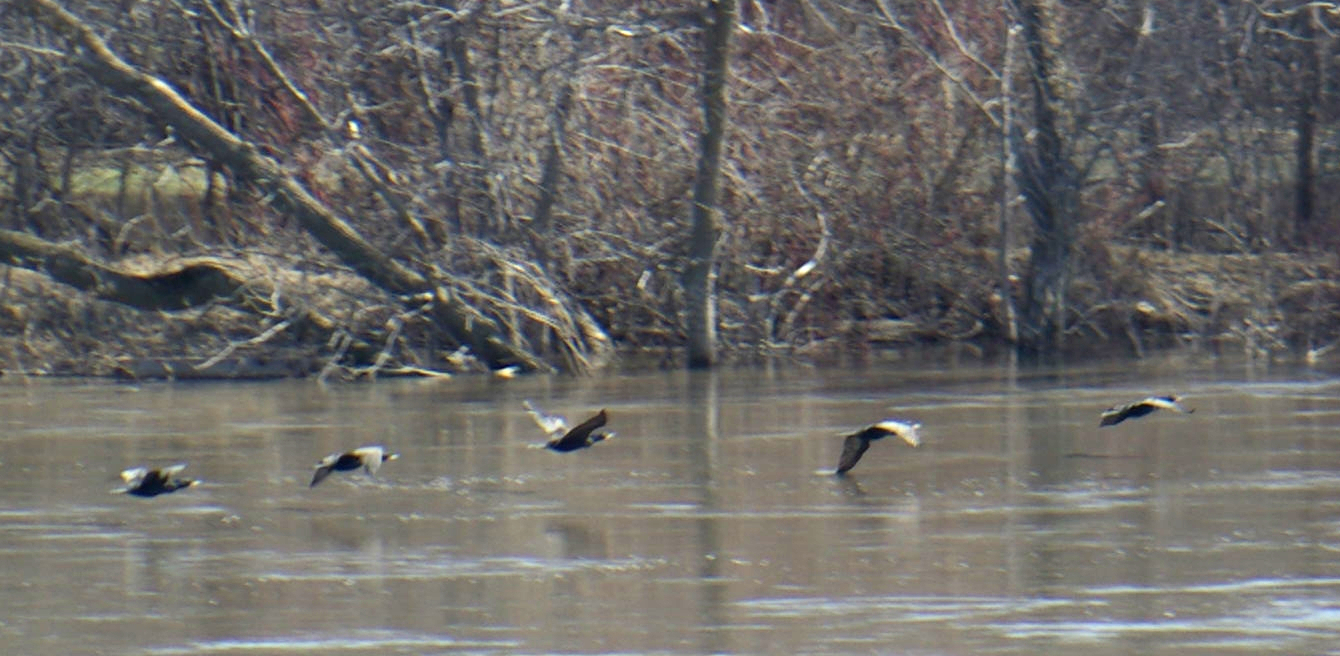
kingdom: Animalia
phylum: Chordata
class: Aves
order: Suliformes
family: Phalacrocoracidae
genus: Phalacrocorax
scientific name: Phalacrocorax auritus
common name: Double-crested cormorant
